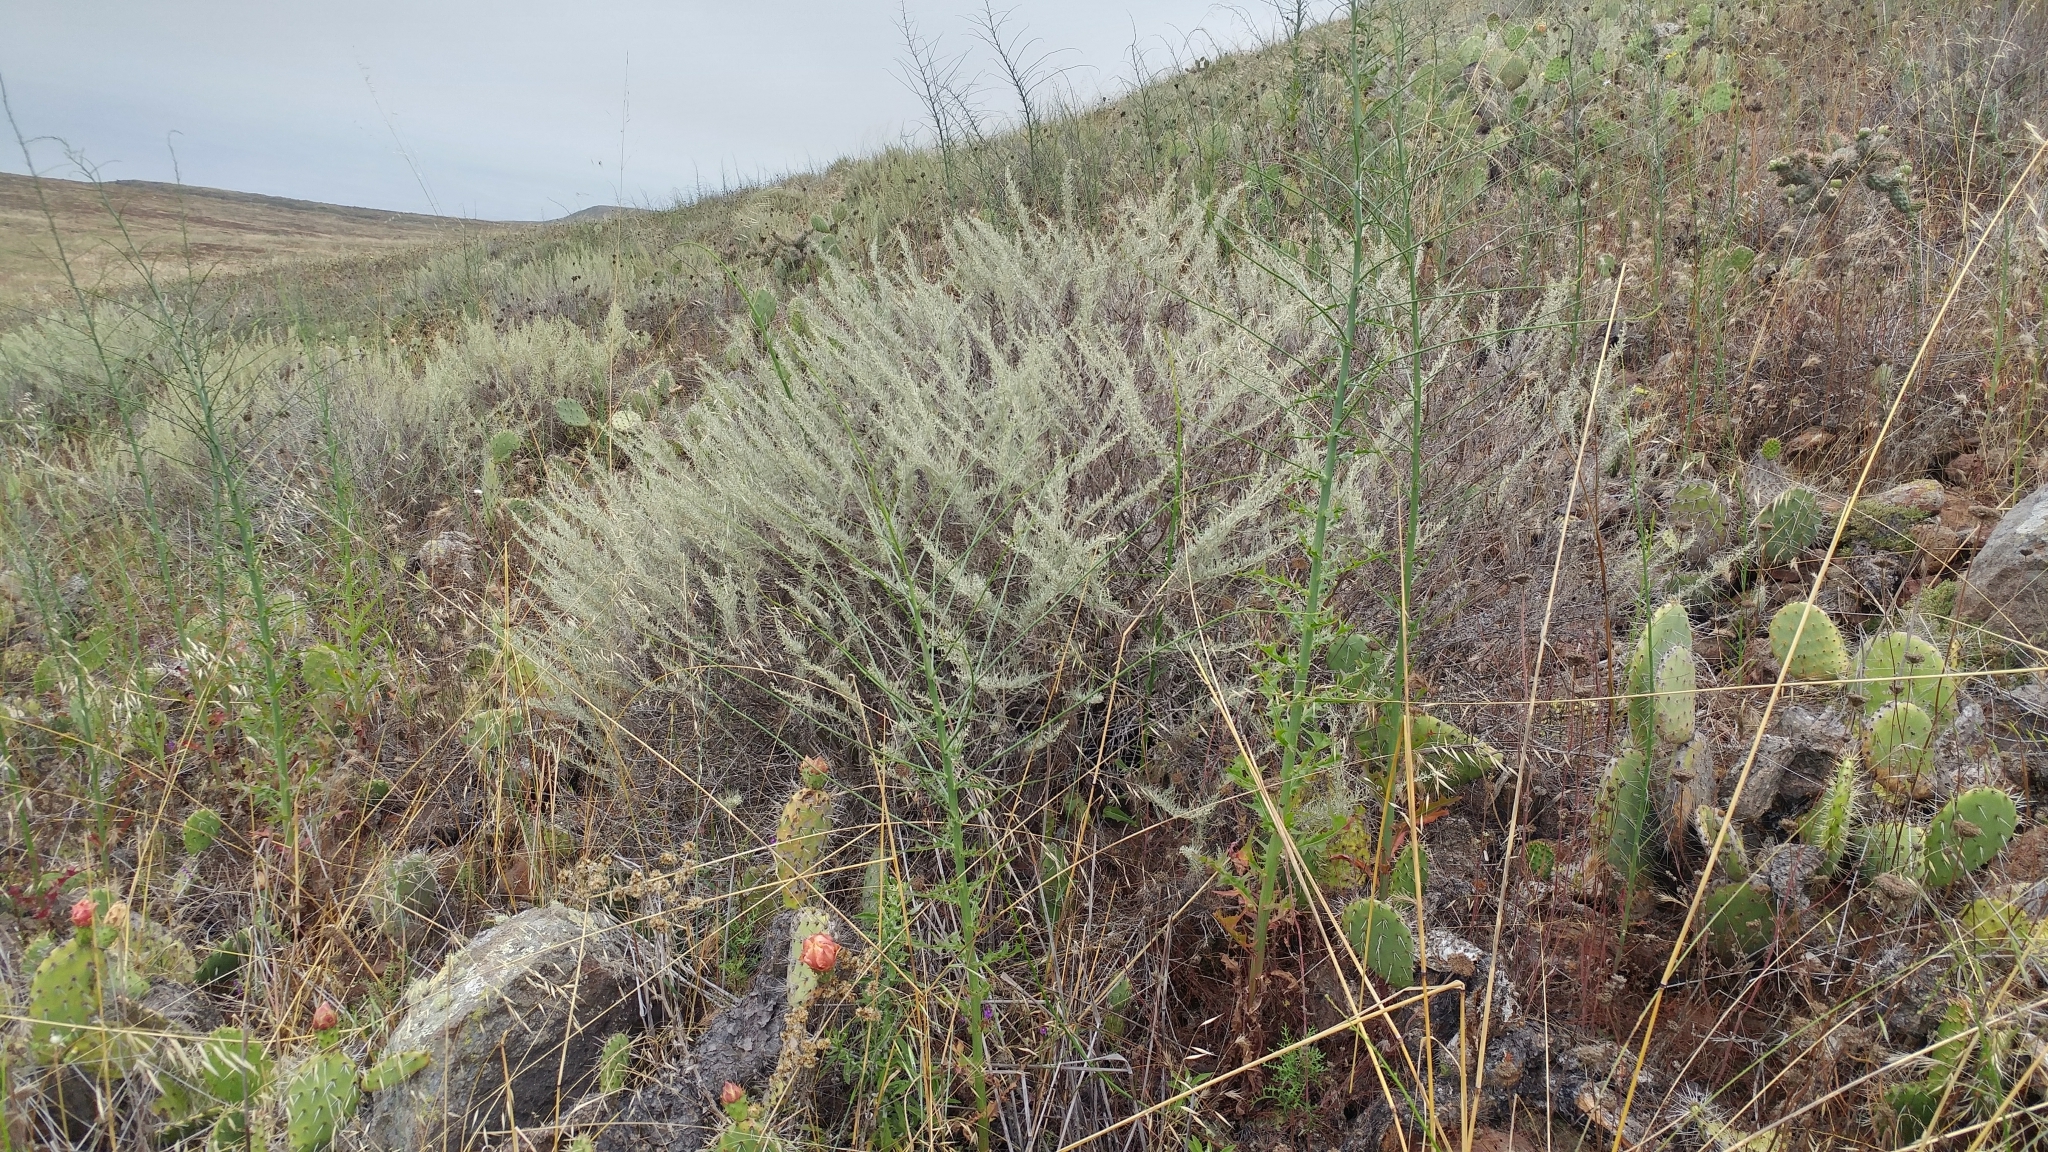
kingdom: Plantae
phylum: Tracheophyta
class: Magnoliopsida
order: Asterales
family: Asteraceae
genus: Artemisia
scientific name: Artemisia californica
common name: California sagebrush
